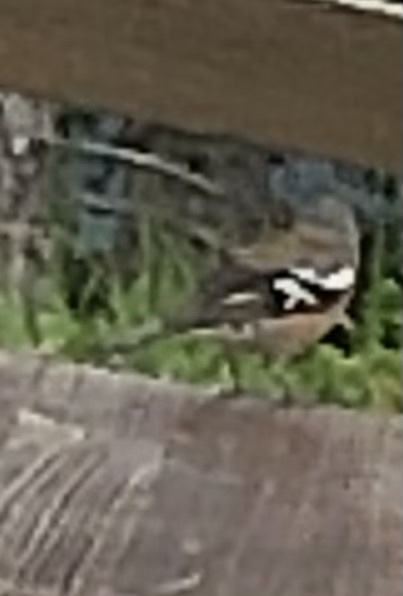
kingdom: Animalia
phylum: Chordata
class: Aves
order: Passeriformes
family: Fringillidae
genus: Fringilla
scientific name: Fringilla coelebs
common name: Common chaffinch
